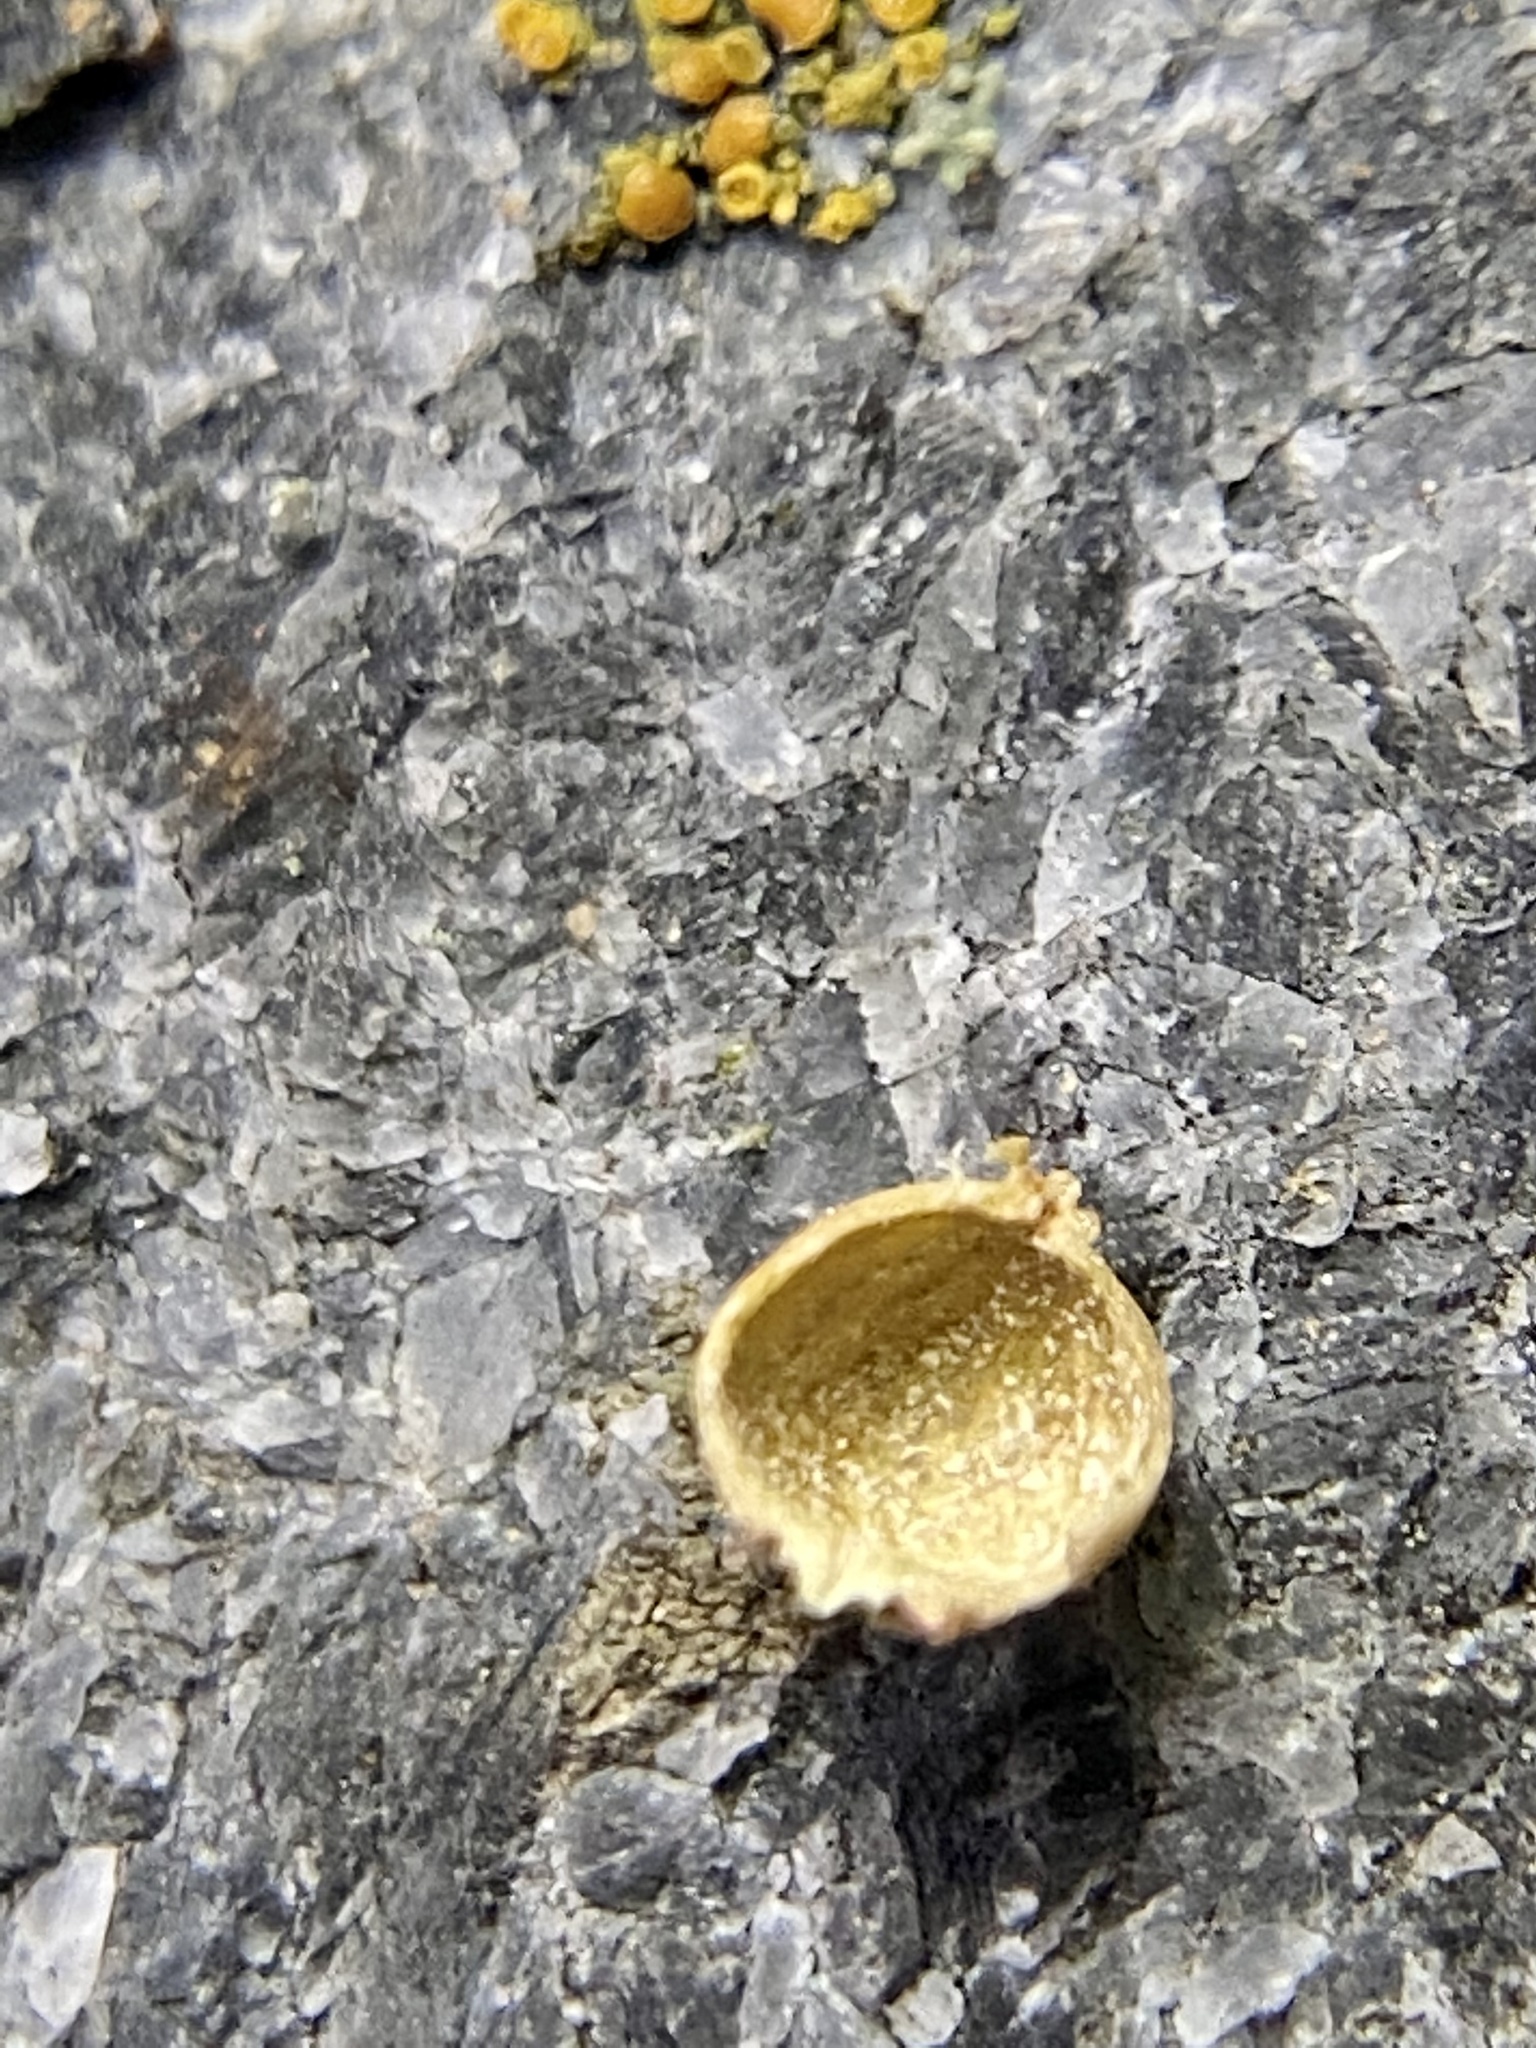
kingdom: Animalia
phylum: Arthropoda
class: Insecta
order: Diptera
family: Cecidomyiidae
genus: Caryomyia
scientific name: Caryomyia leviglobus
